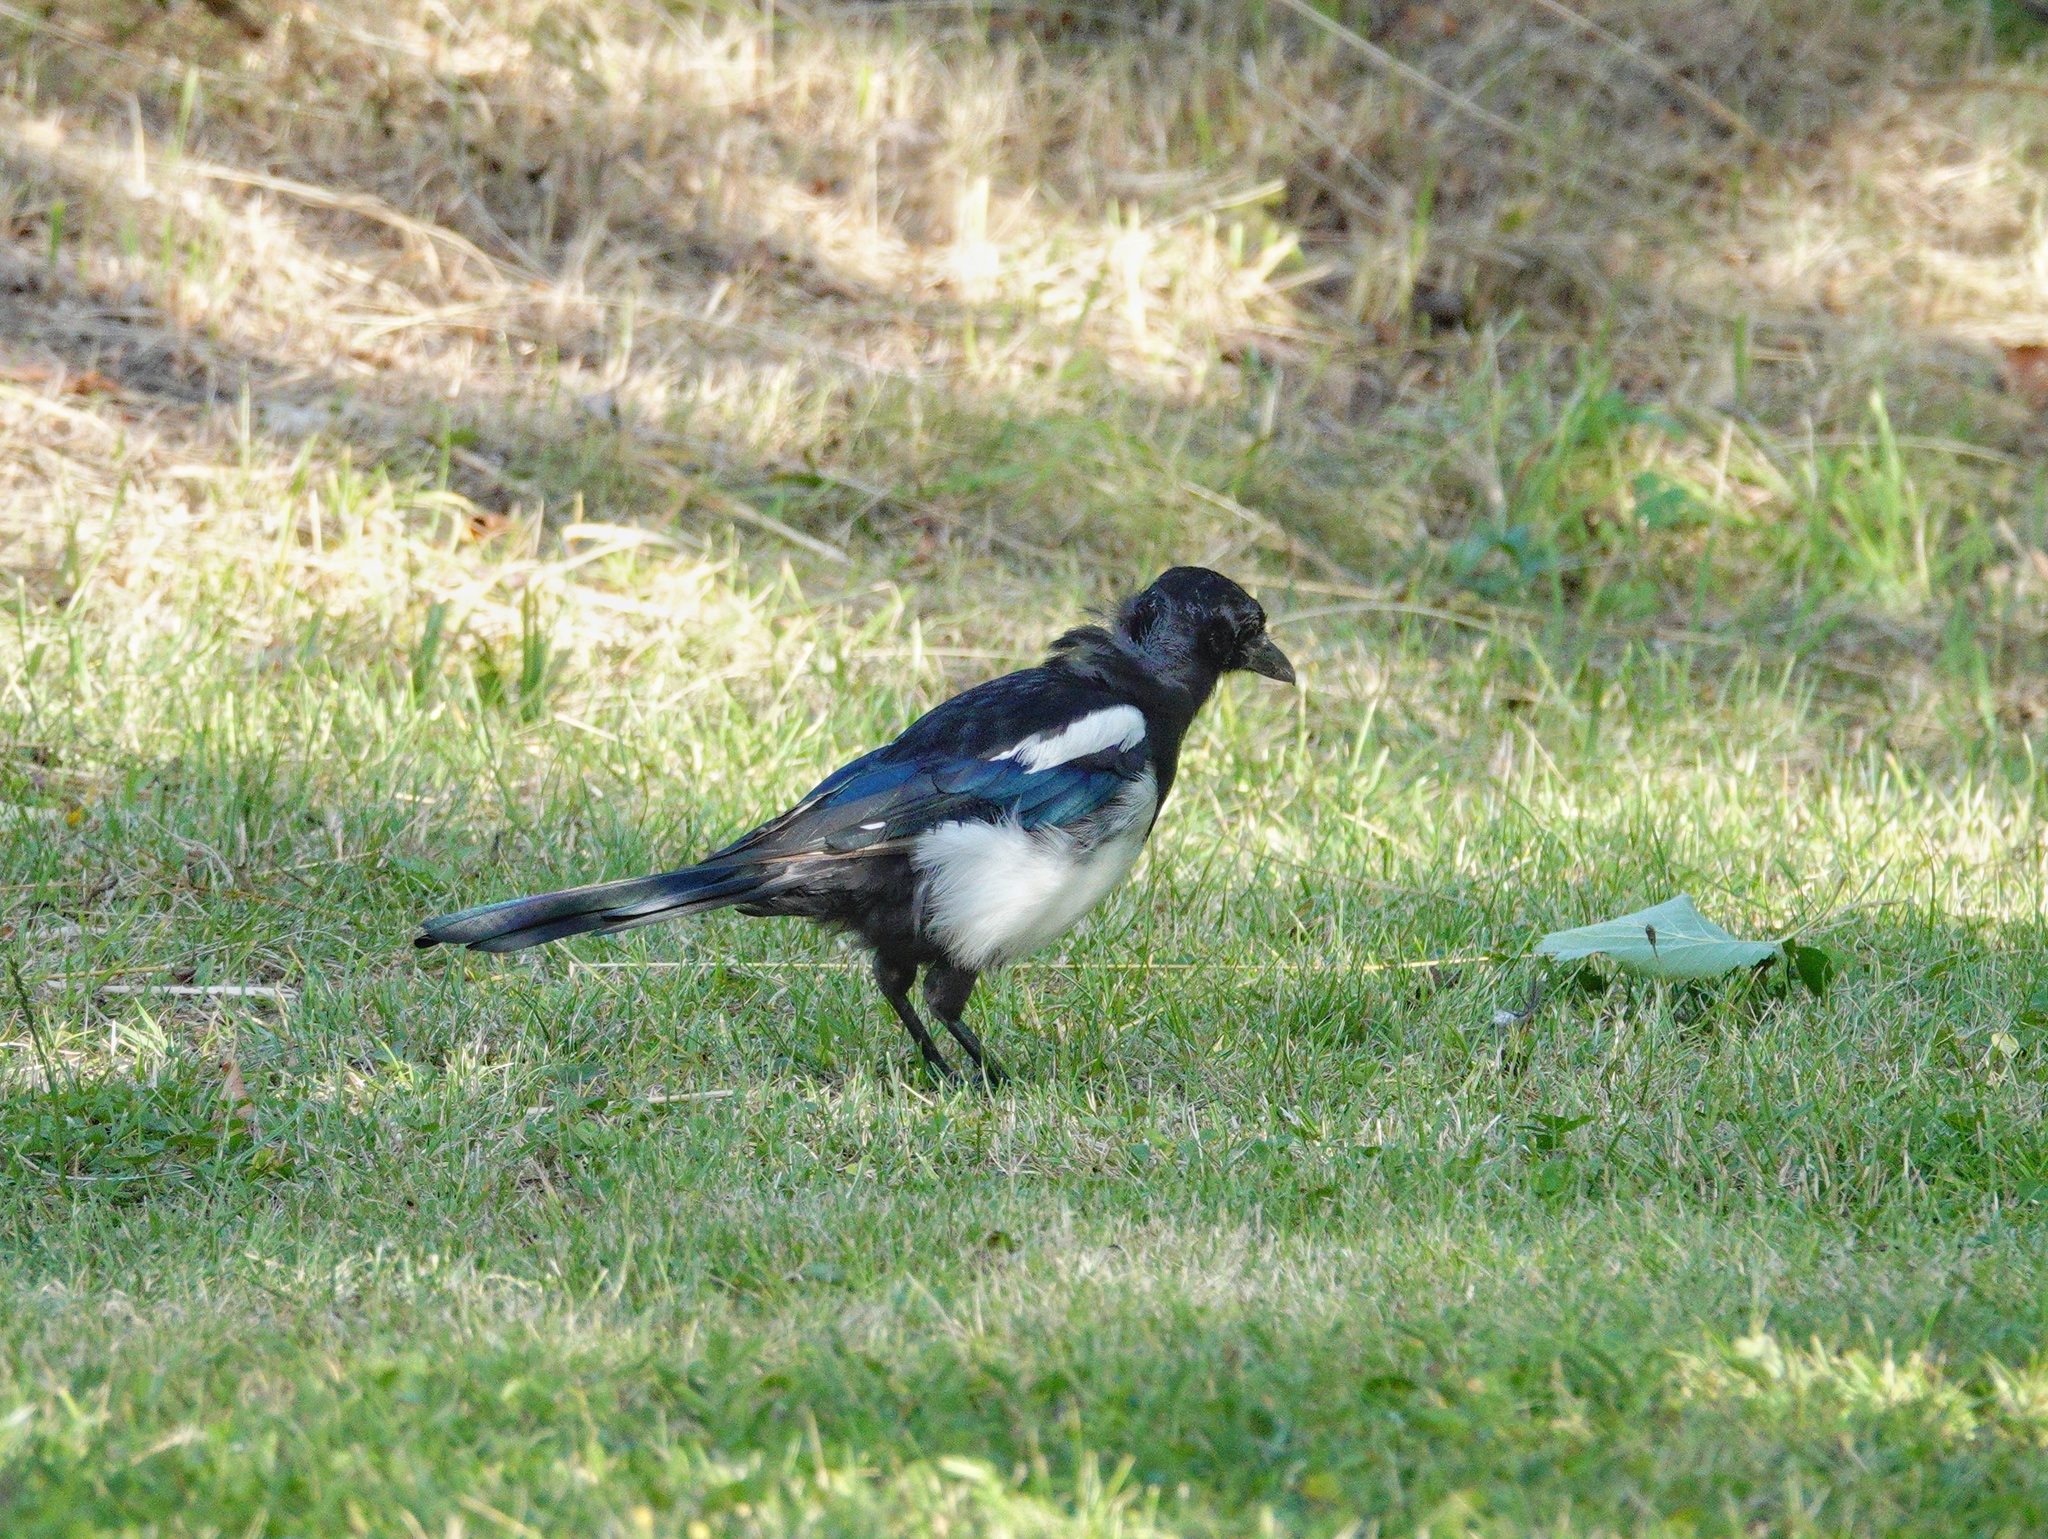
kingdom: Animalia
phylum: Chordata
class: Aves
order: Passeriformes
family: Corvidae
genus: Pica
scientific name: Pica pica
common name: Eurasian magpie
